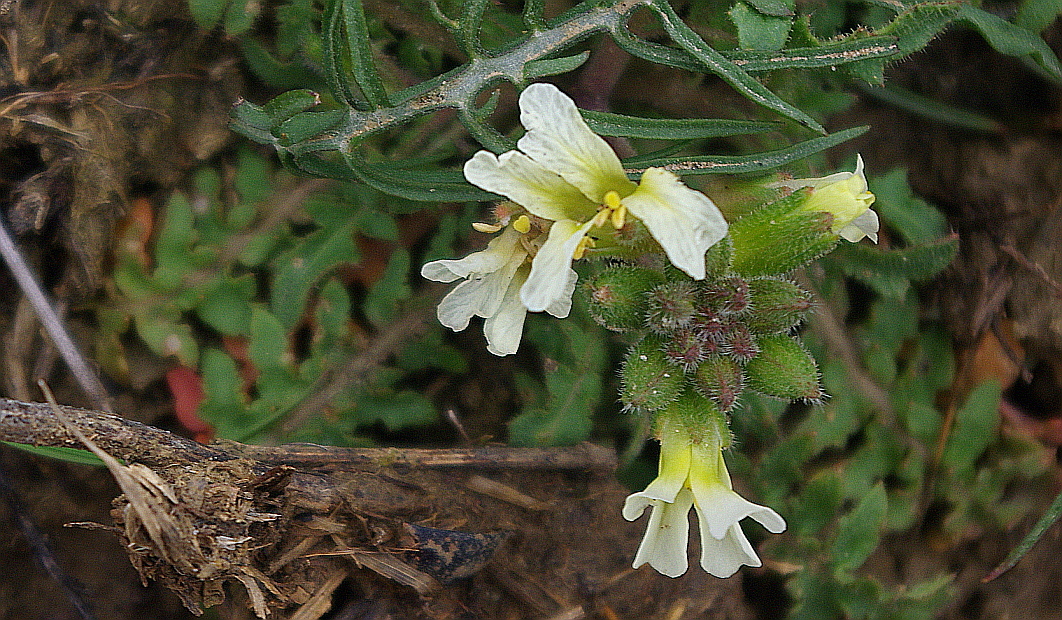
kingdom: Plantae
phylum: Tracheophyta
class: Magnoliopsida
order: Brassicales
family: Brassicaceae
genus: Chorispora
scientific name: Chorispora iberica
